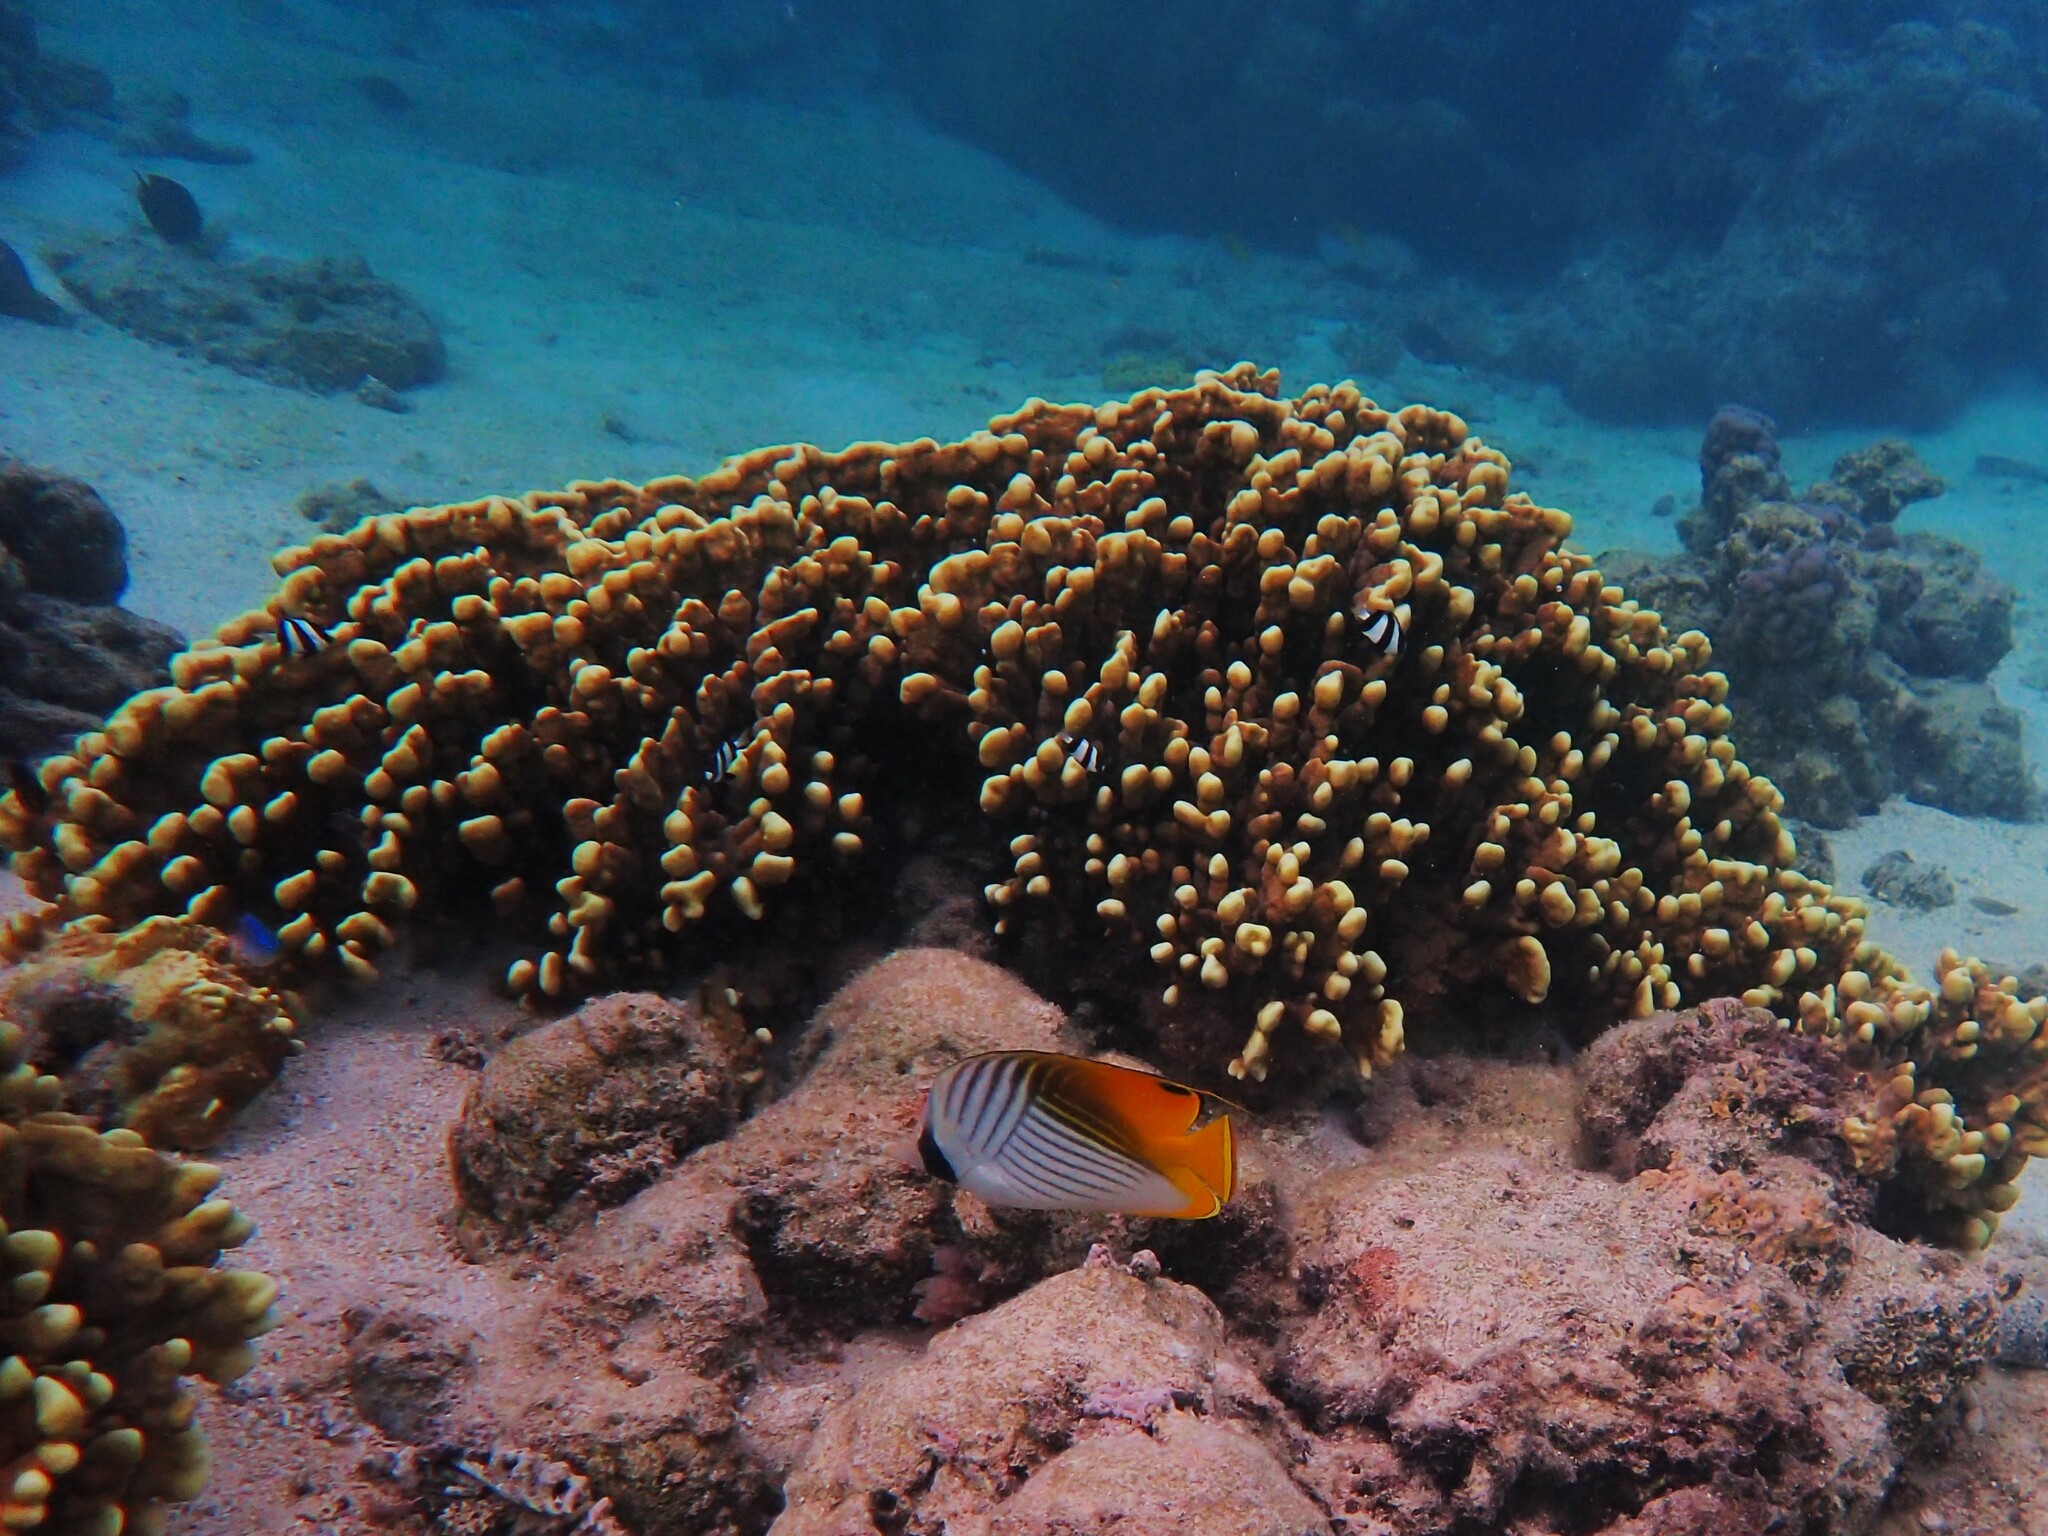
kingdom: Animalia
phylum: Chordata
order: Perciformes
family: Chaetodontidae
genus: Chaetodon
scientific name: Chaetodon auriga
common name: Threadfin butterflyfish
